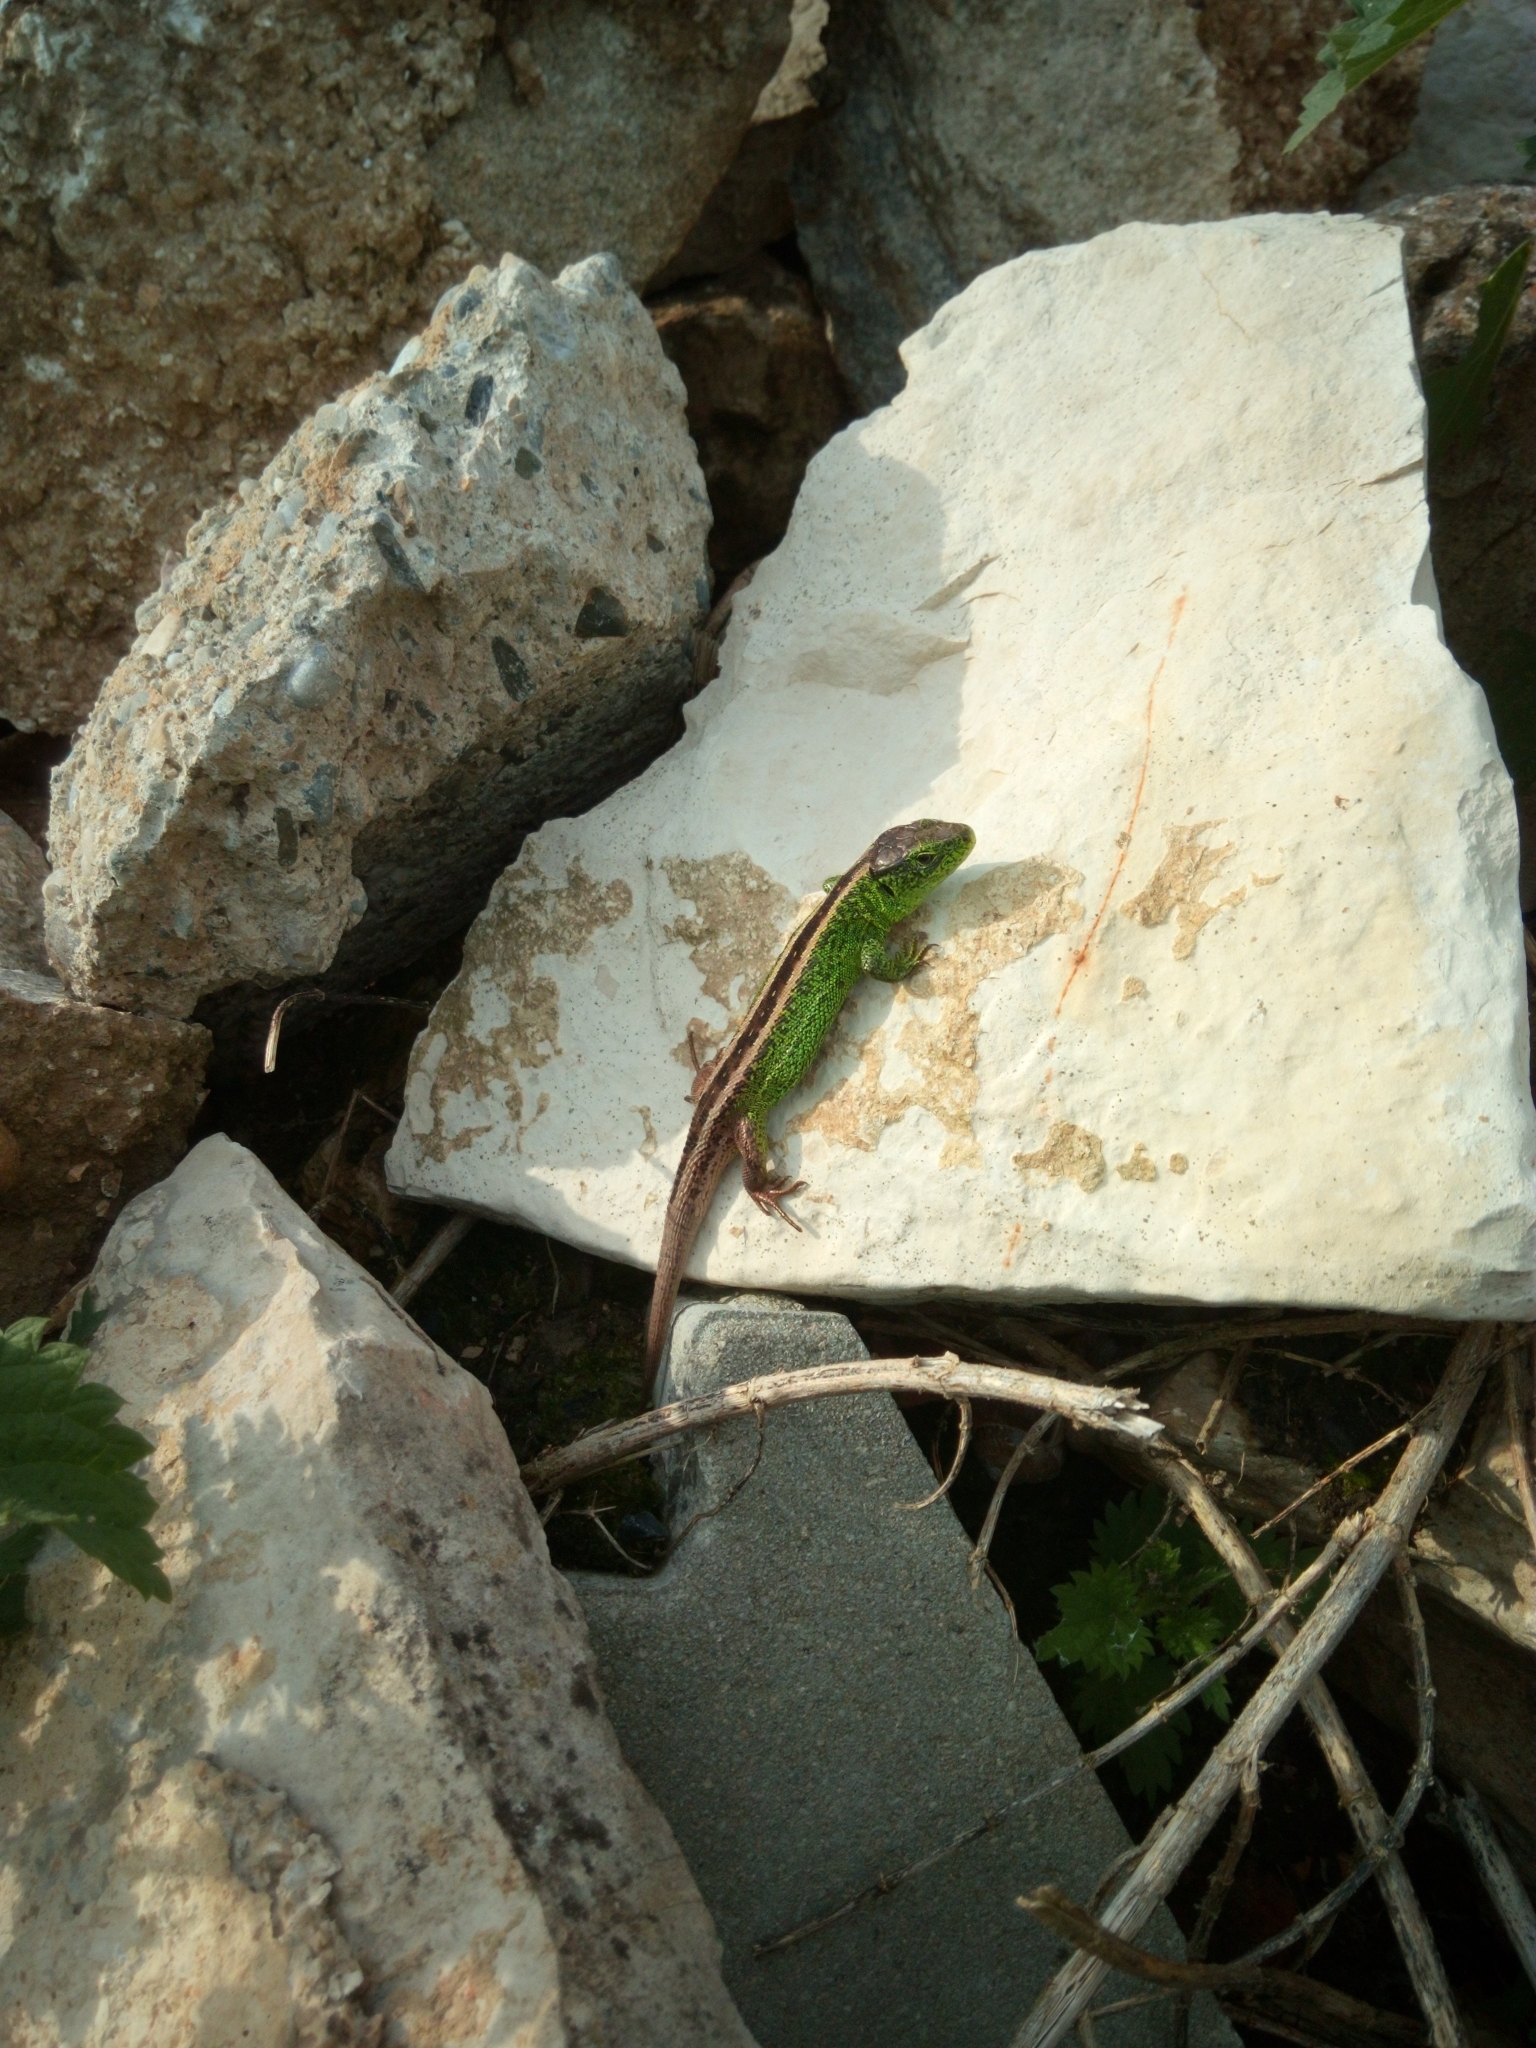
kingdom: Animalia
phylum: Chordata
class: Squamata
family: Lacertidae
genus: Lacerta
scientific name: Lacerta agilis
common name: Sand lizard
